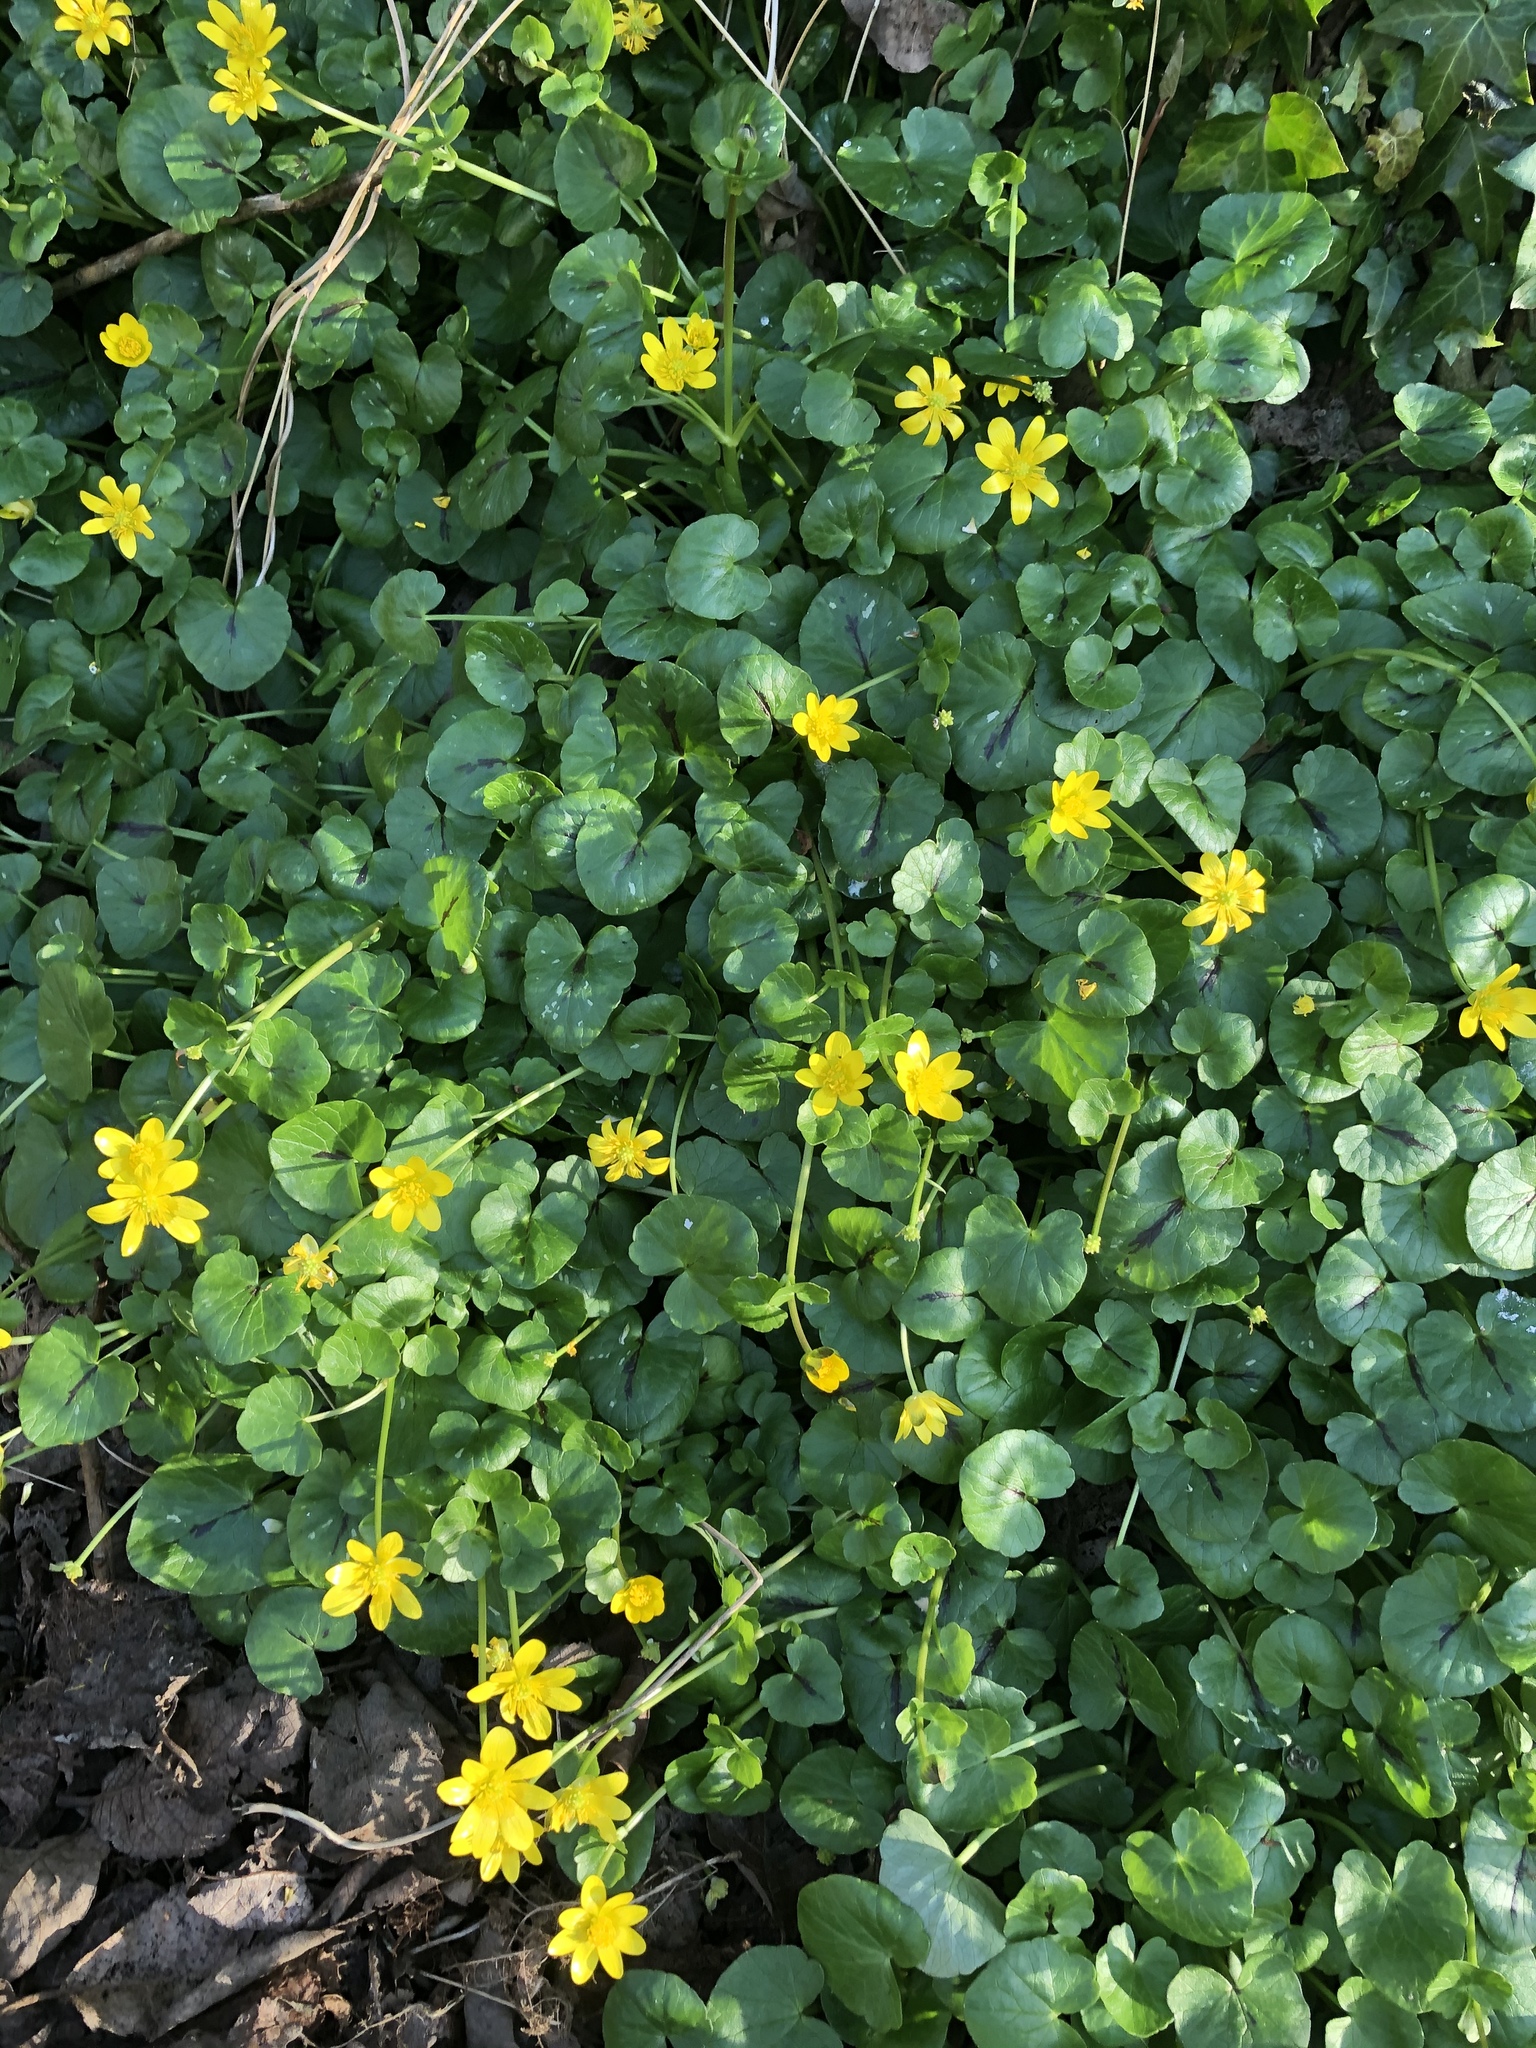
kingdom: Plantae
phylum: Tracheophyta
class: Magnoliopsida
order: Ranunculales
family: Ranunculaceae
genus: Ficaria
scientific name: Ficaria verna
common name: Lesser celandine
